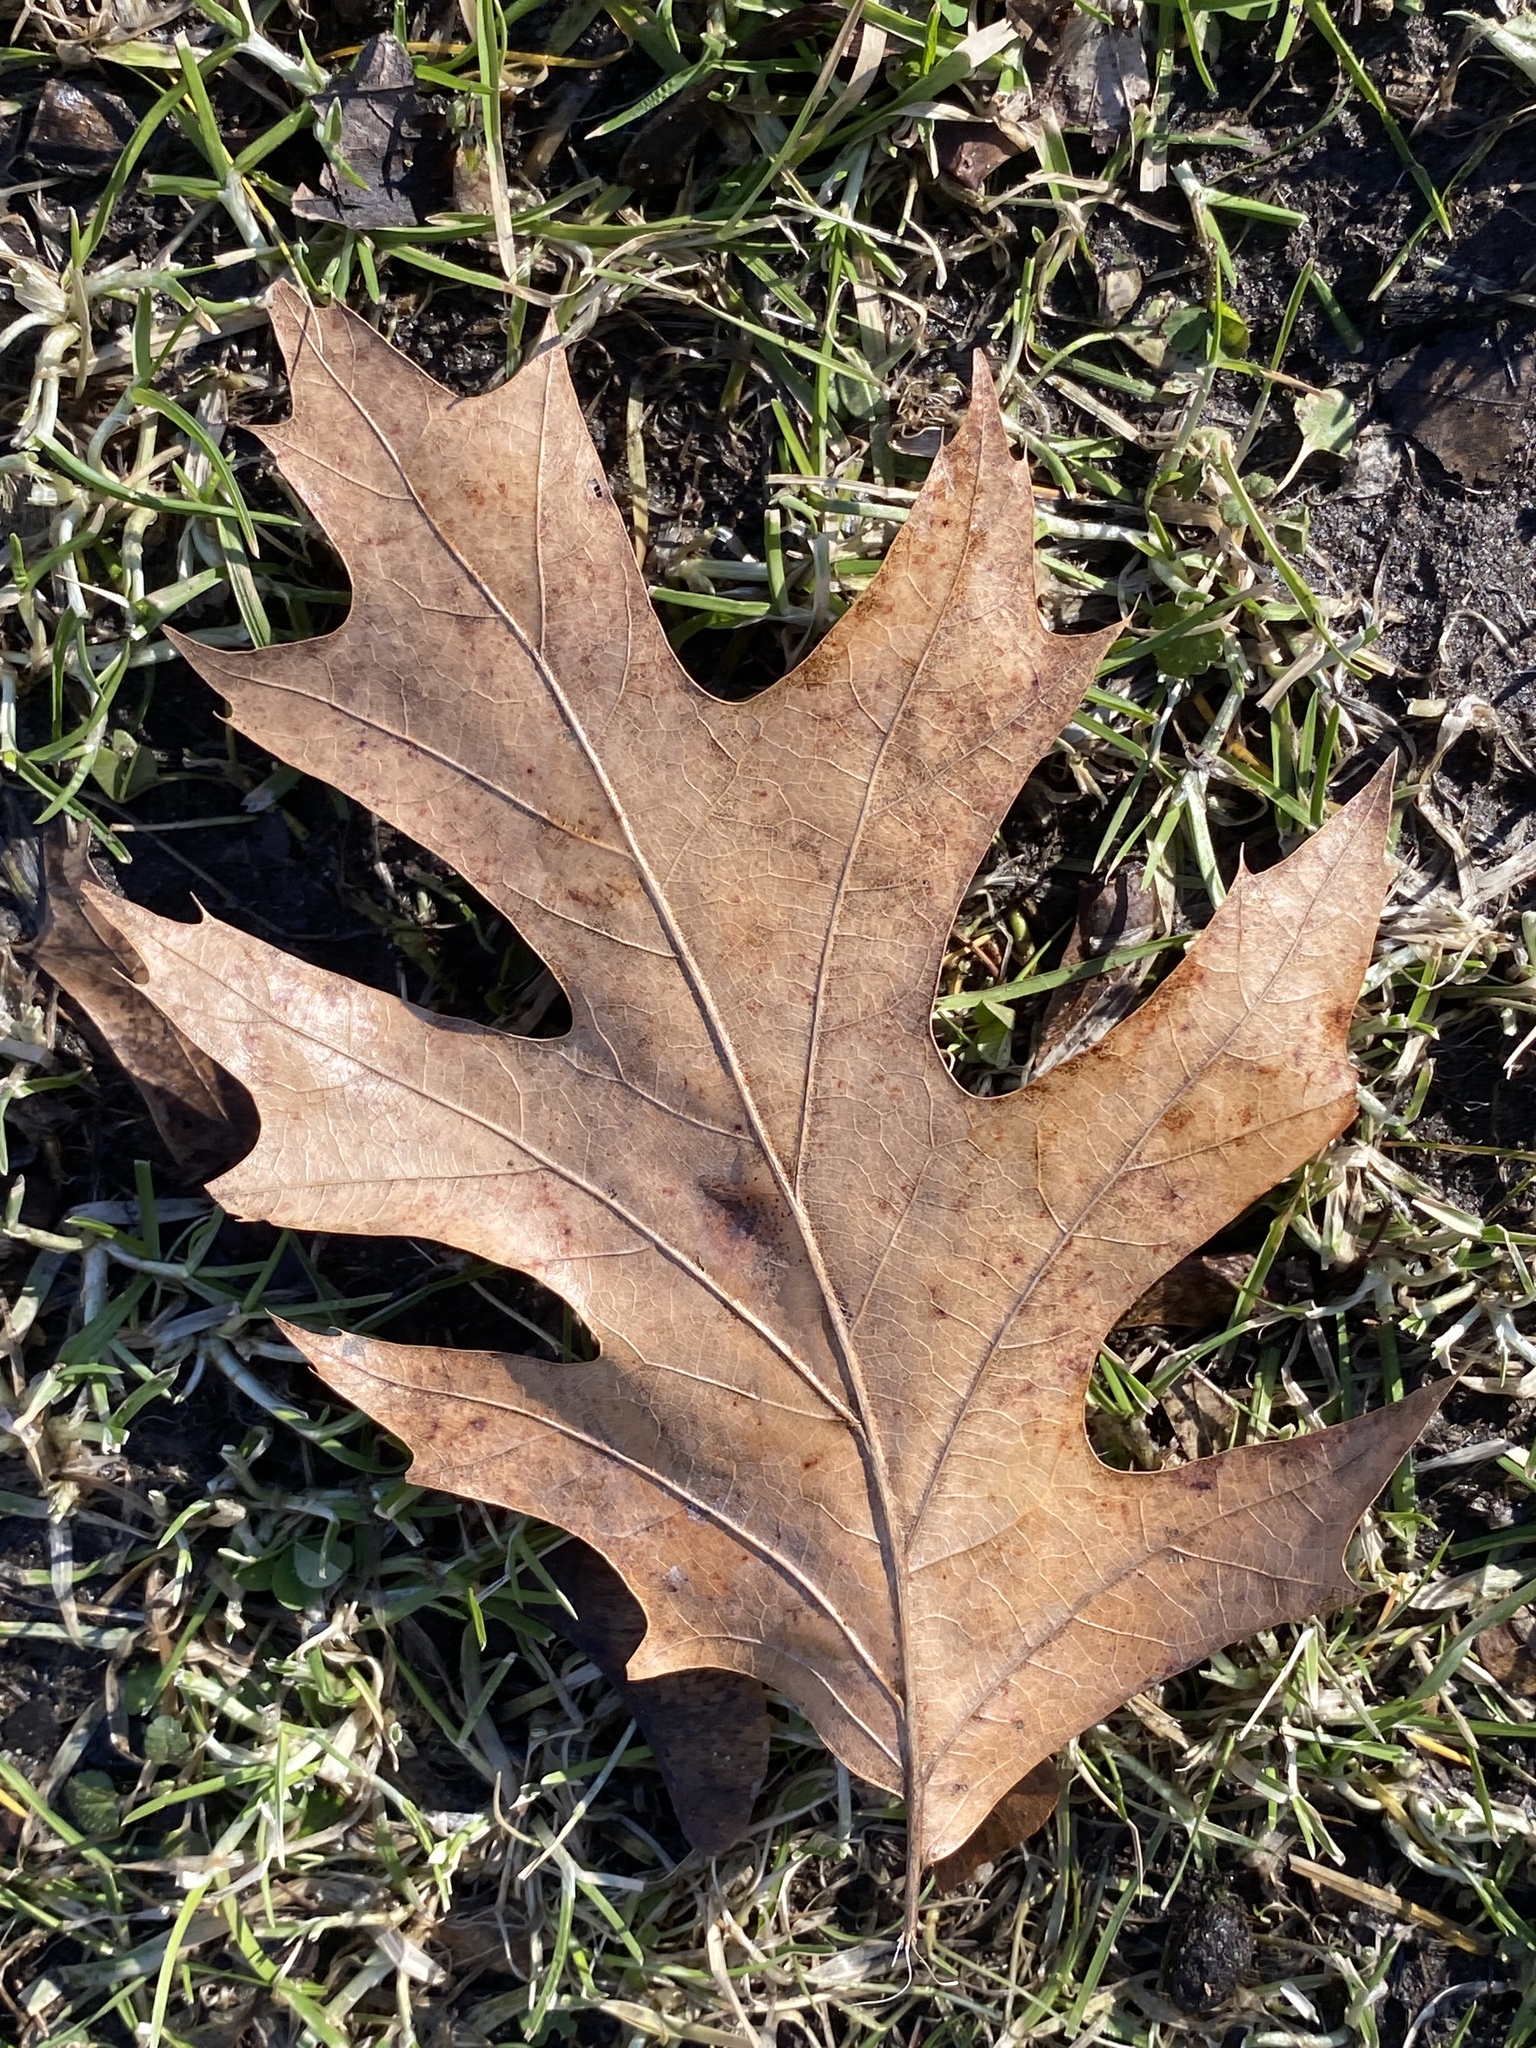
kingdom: Plantae
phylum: Tracheophyta
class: Magnoliopsida
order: Fagales
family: Fagaceae
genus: Quercus
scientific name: Quercus rubra
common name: Red oak
